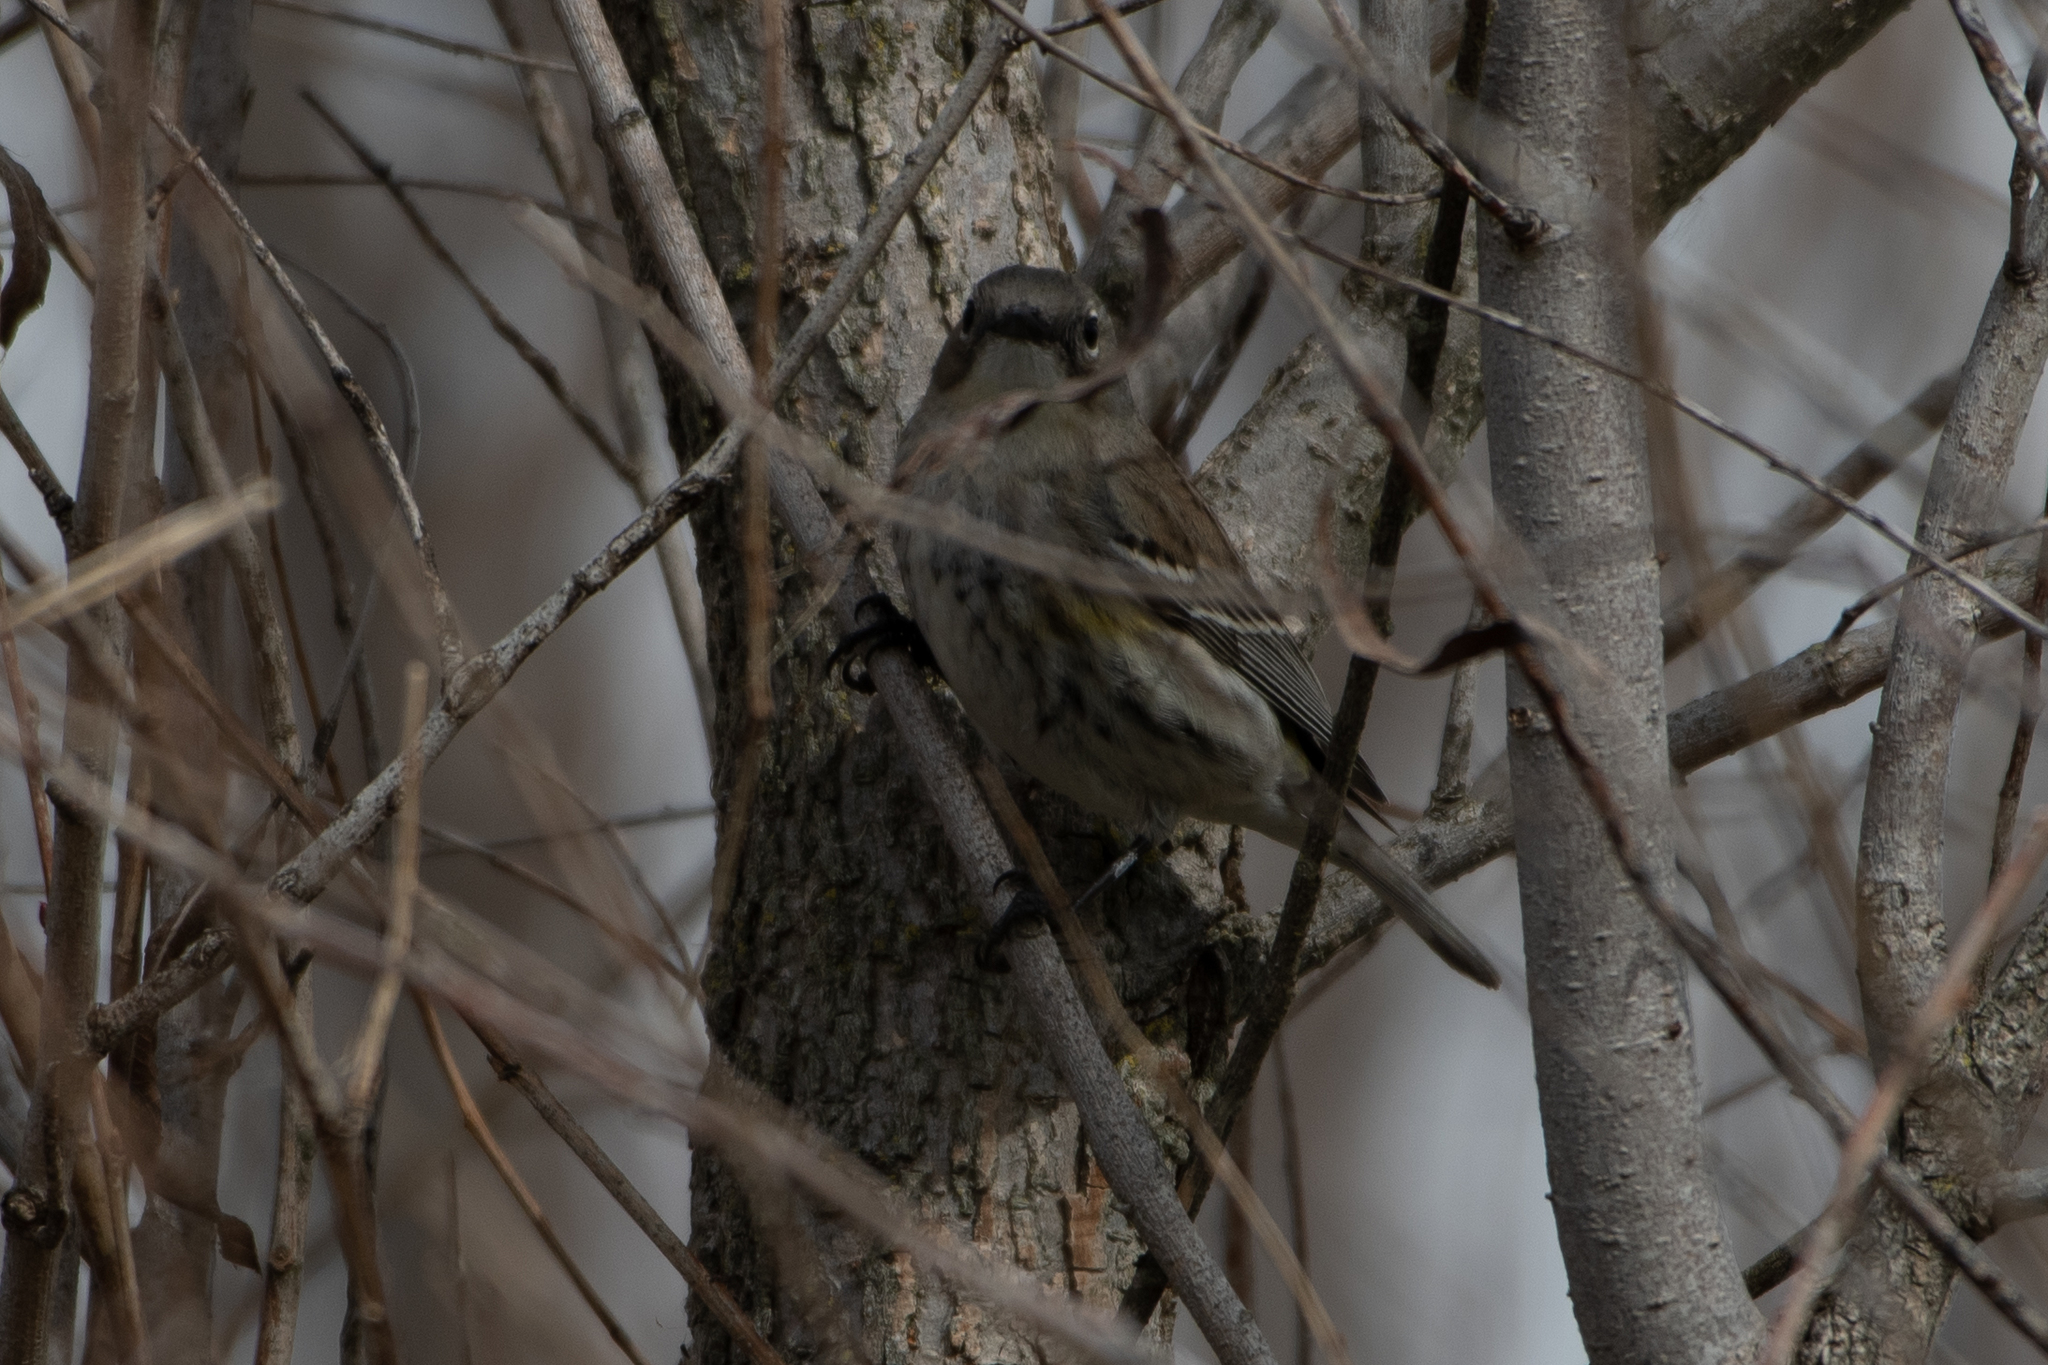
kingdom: Animalia
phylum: Chordata
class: Aves
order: Passeriformes
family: Parulidae
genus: Setophaga
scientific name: Setophaga coronata
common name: Myrtle warbler
